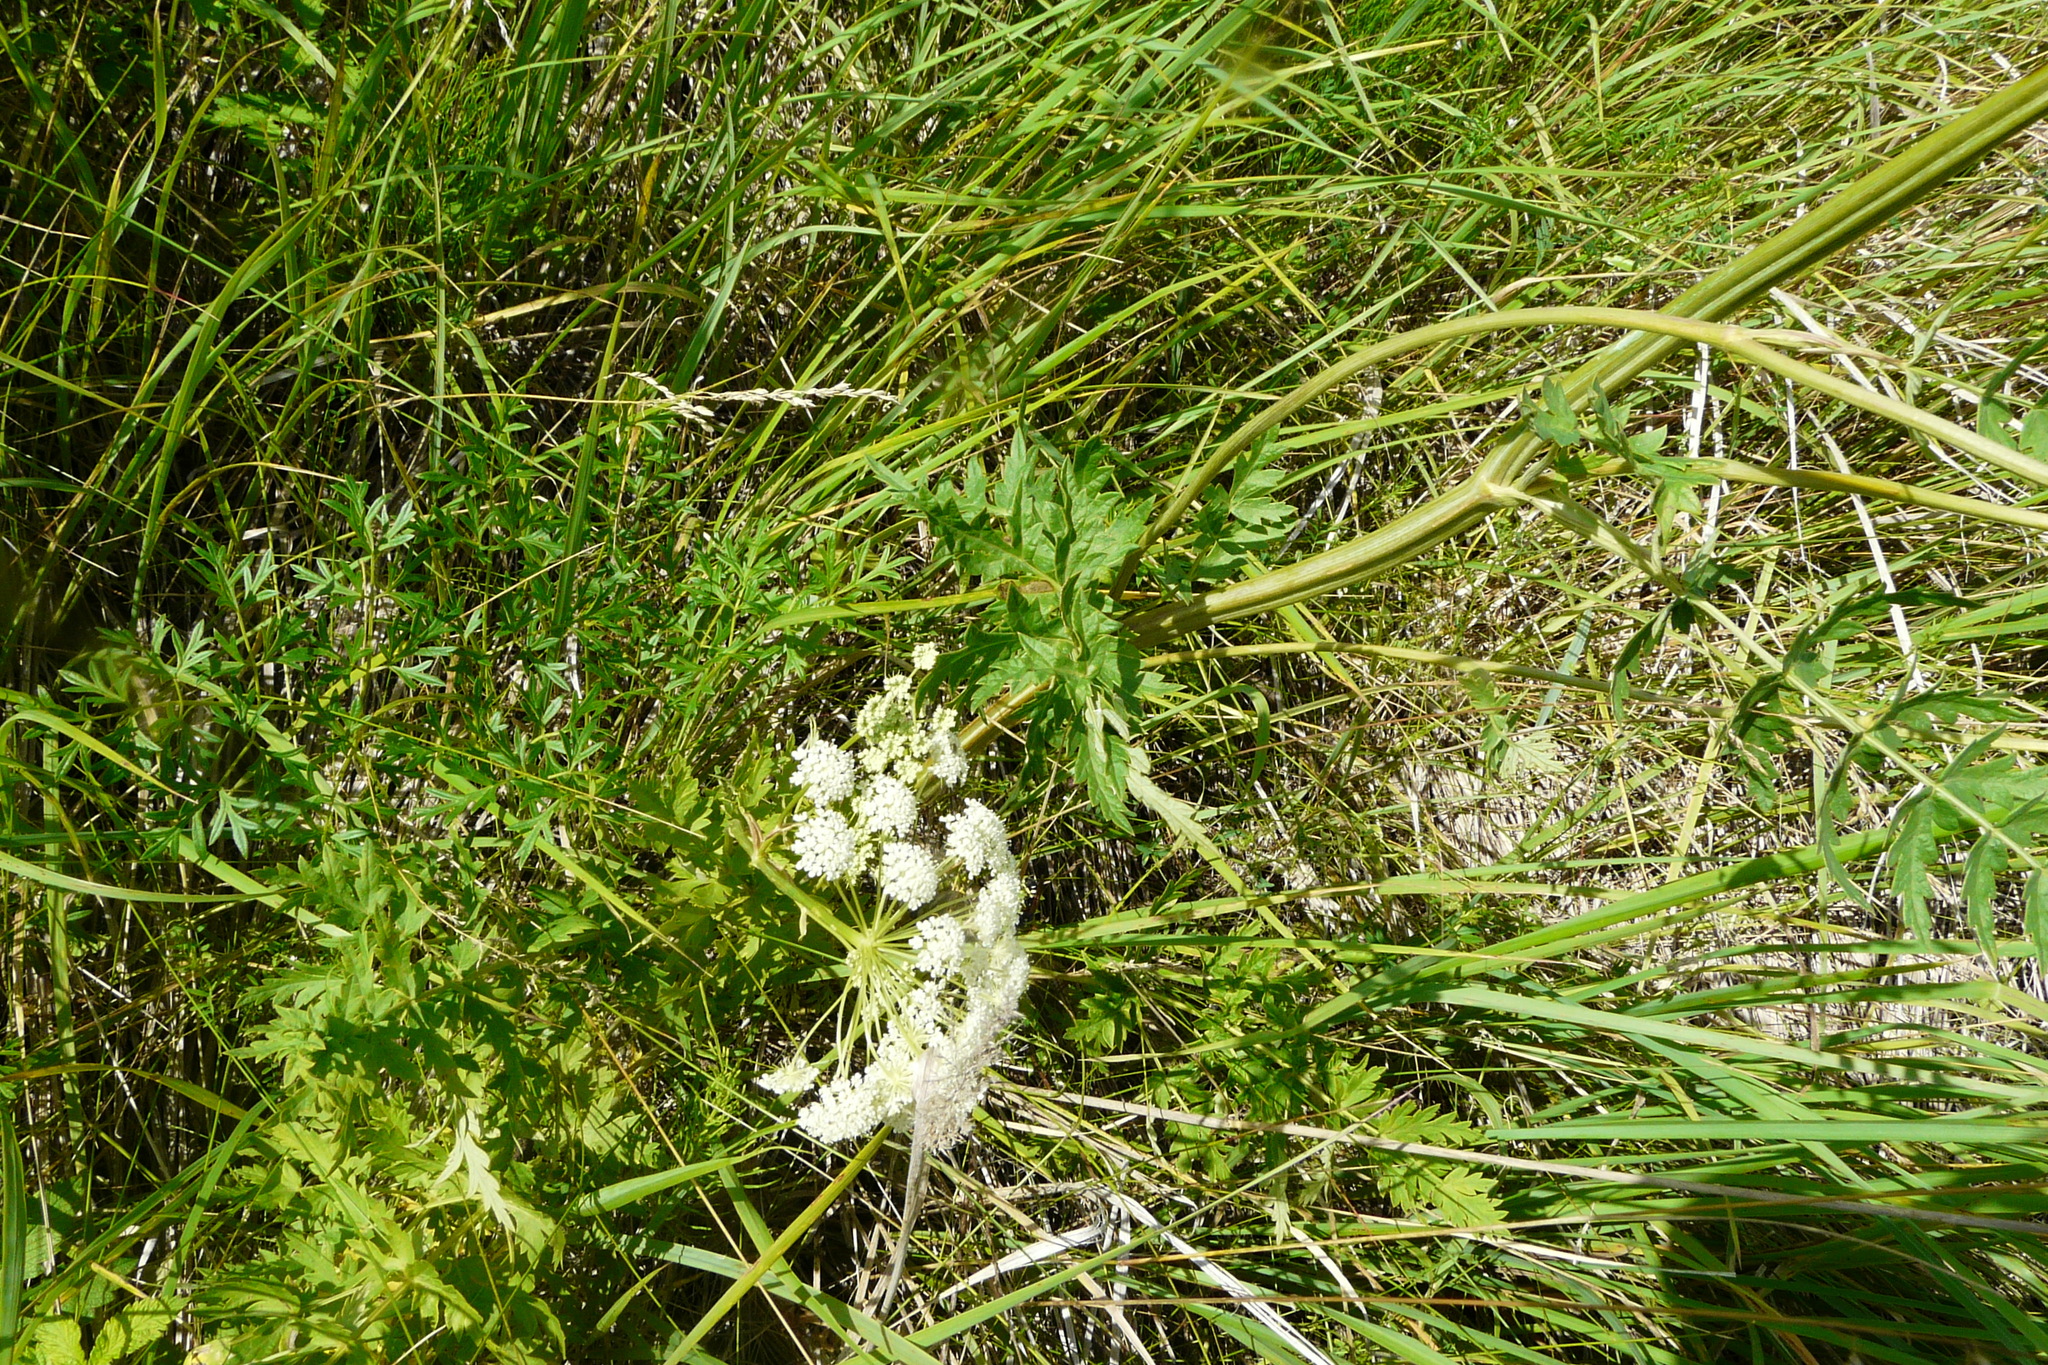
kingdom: Plantae
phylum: Tracheophyta
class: Magnoliopsida
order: Apiales
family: Apiaceae
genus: Seseli
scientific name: Seseli libanotis
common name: Mooncarrot
